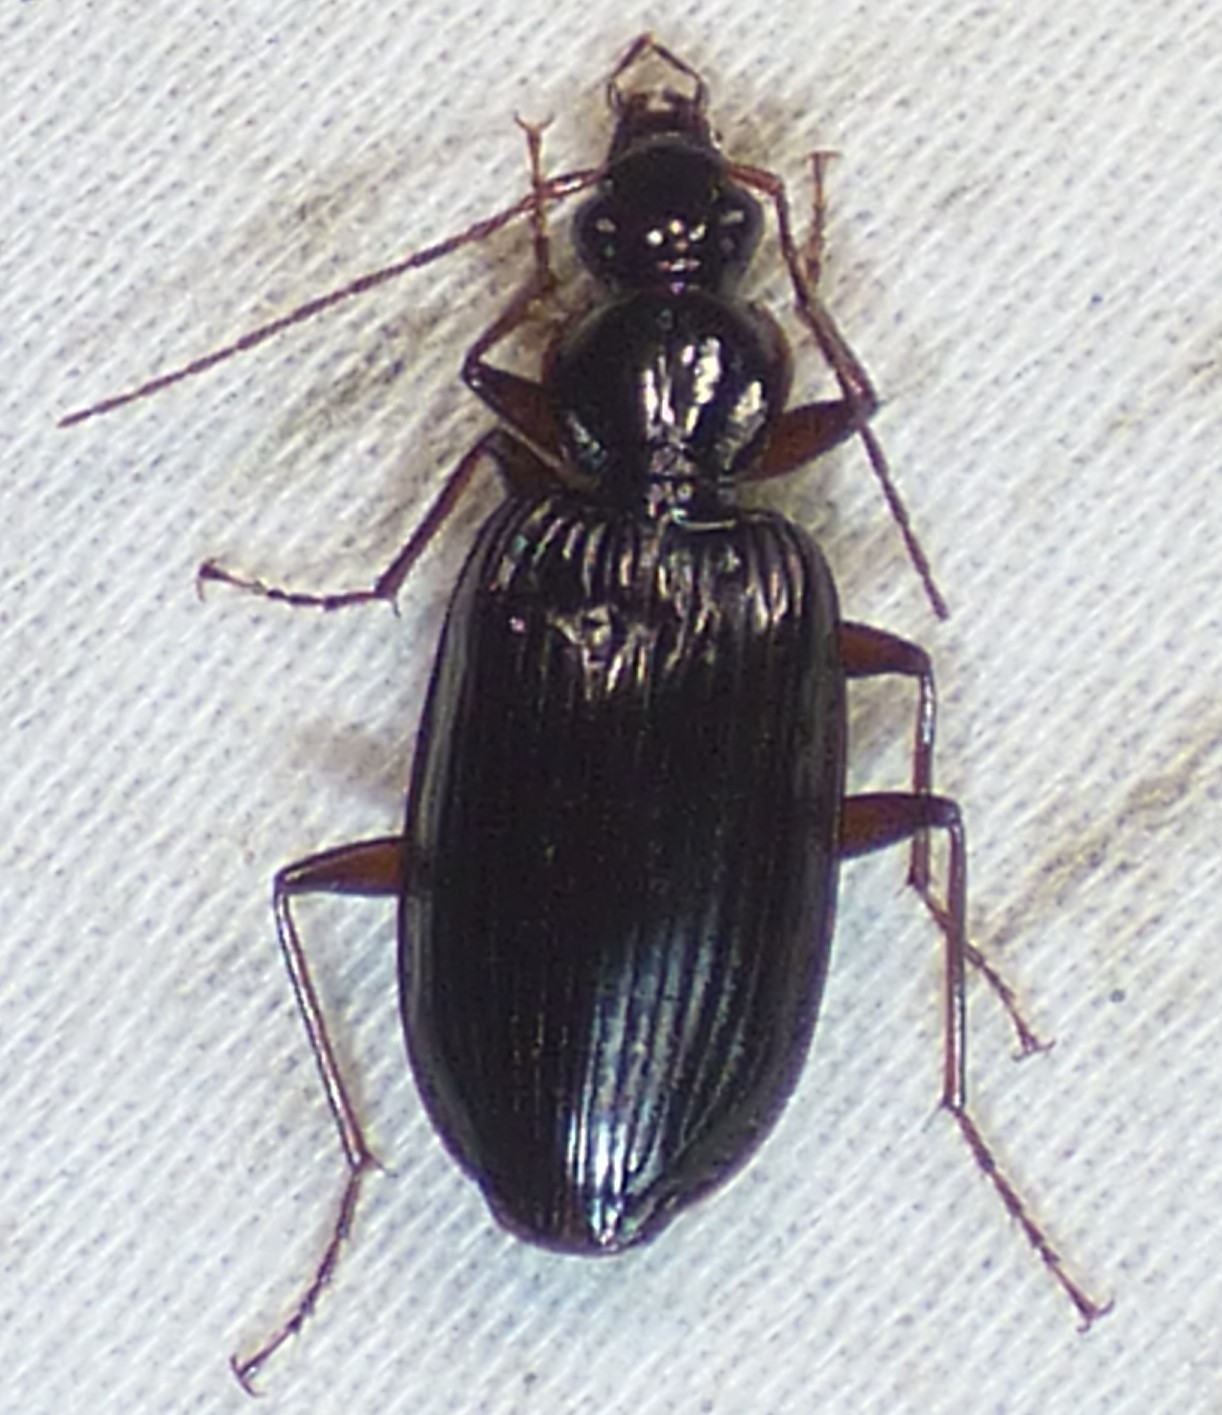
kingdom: Animalia
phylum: Arthropoda
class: Insecta
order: Coleoptera
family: Carabidae
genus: Platynus
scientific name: Platynus cincticollis
